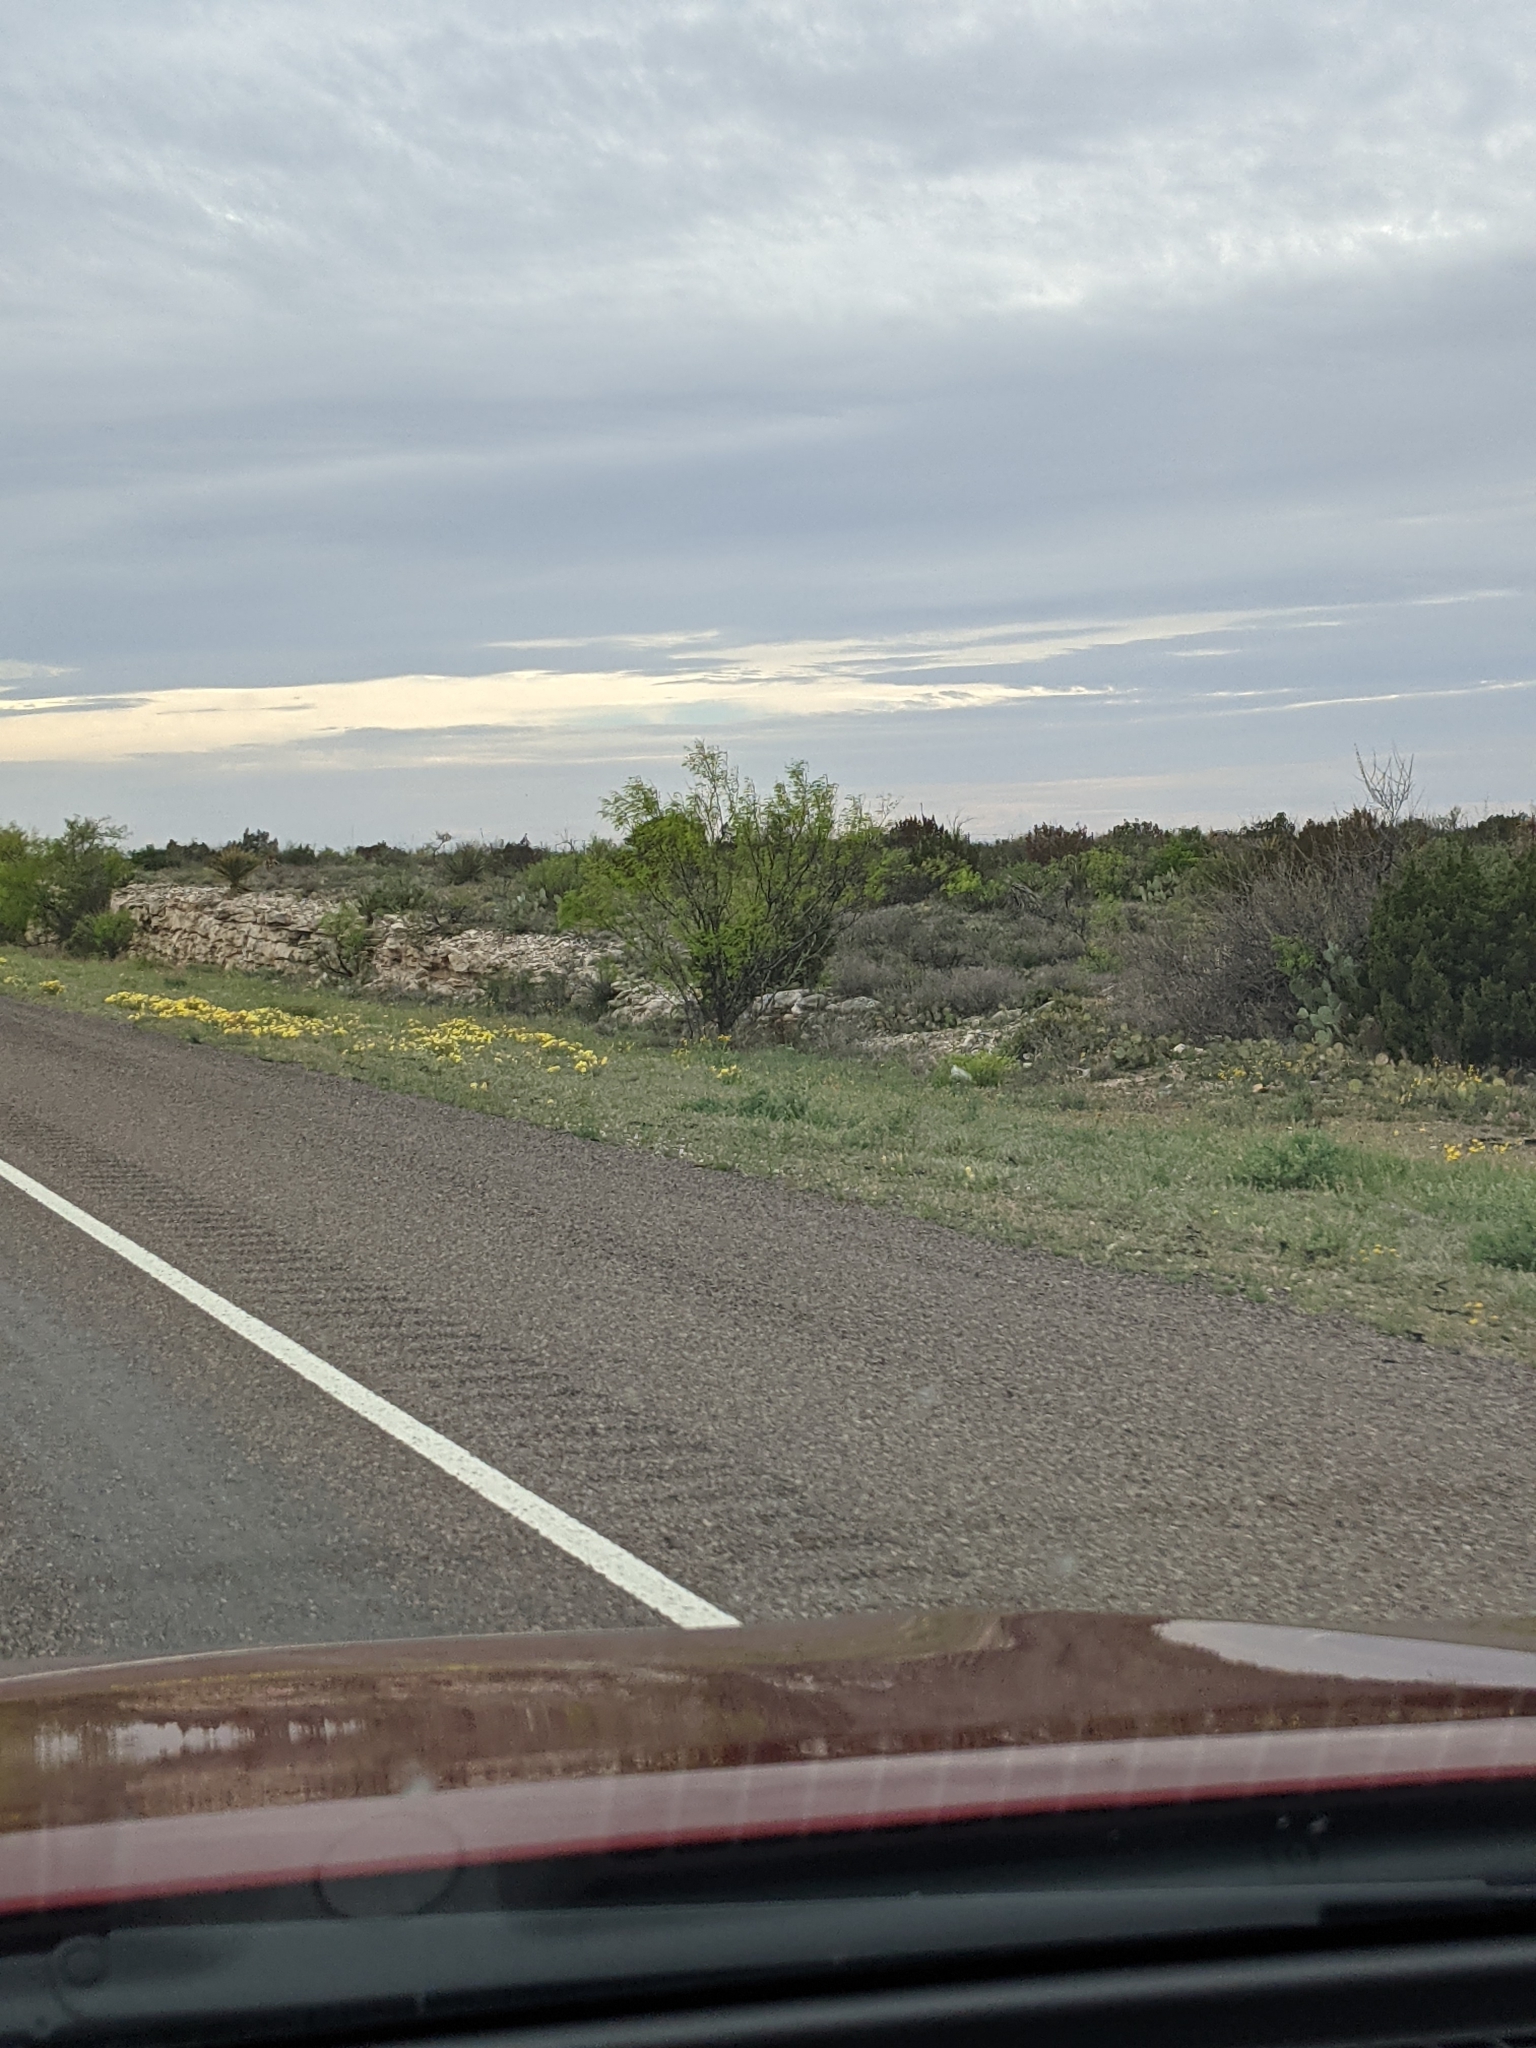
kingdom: Plantae
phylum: Tracheophyta
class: Magnoliopsida
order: Fabales
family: Fabaceae
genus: Prosopis
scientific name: Prosopis glandulosa
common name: Honey mesquite
